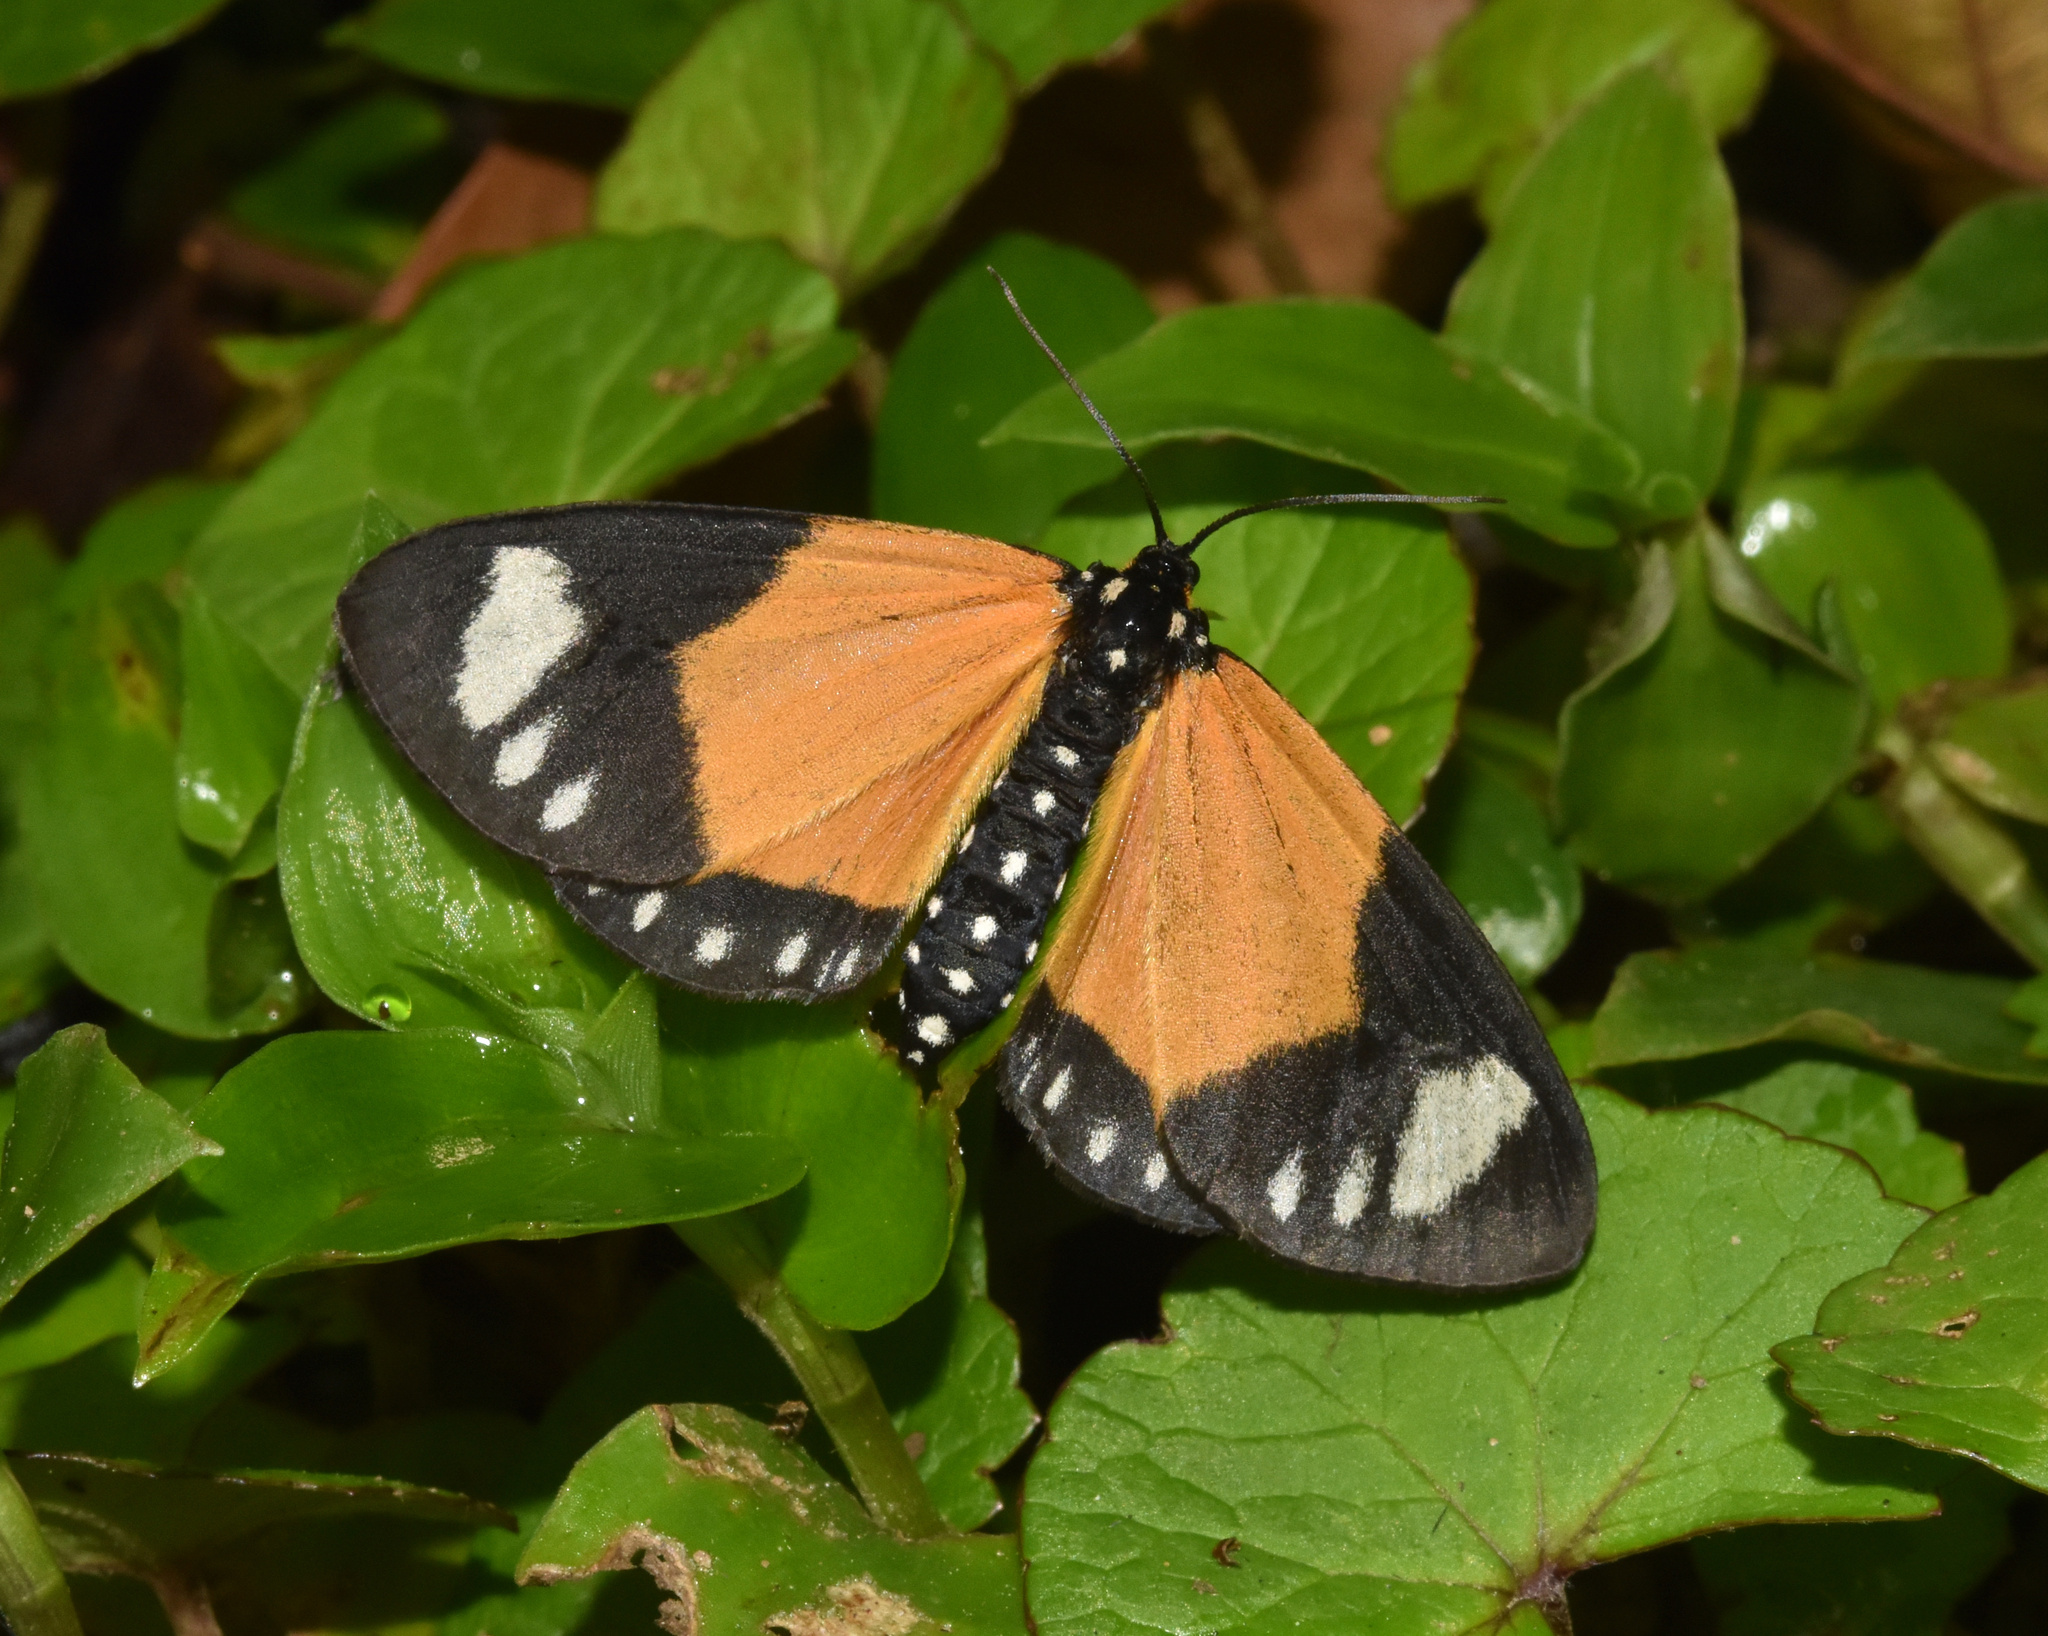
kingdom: Animalia
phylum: Arthropoda
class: Insecta
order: Lepidoptera
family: Geometridae
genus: Cartaletis
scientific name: Cartaletis libyssa
